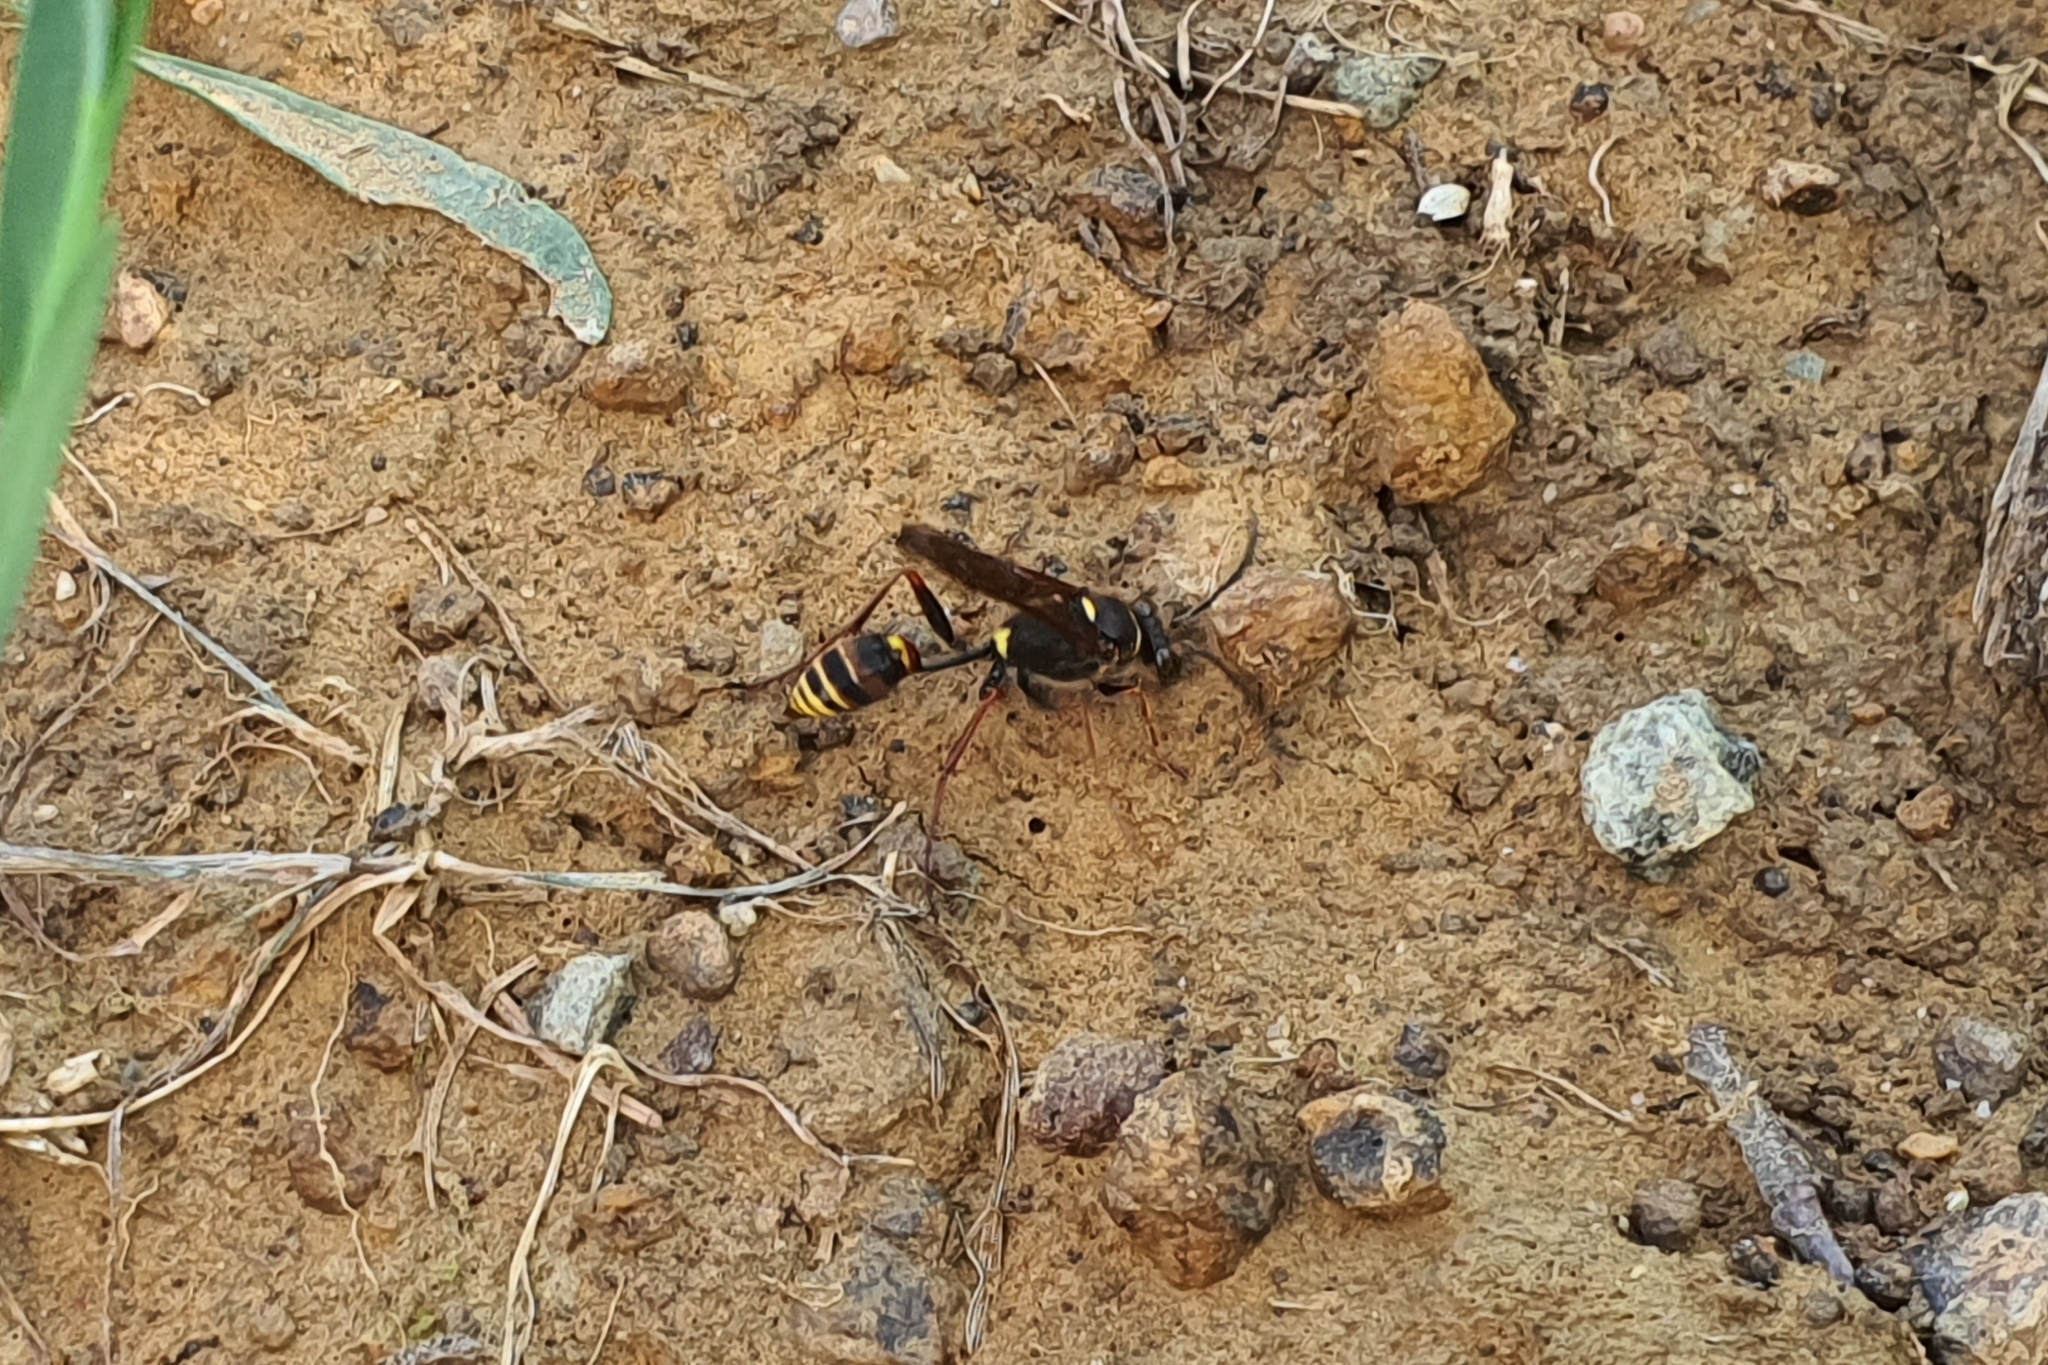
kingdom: Animalia
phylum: Arthropoda
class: Insecta
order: Hymenoptera
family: Sphecidae
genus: Sceliphron
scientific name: Sceliphron curvatum
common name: Pèlopèe
